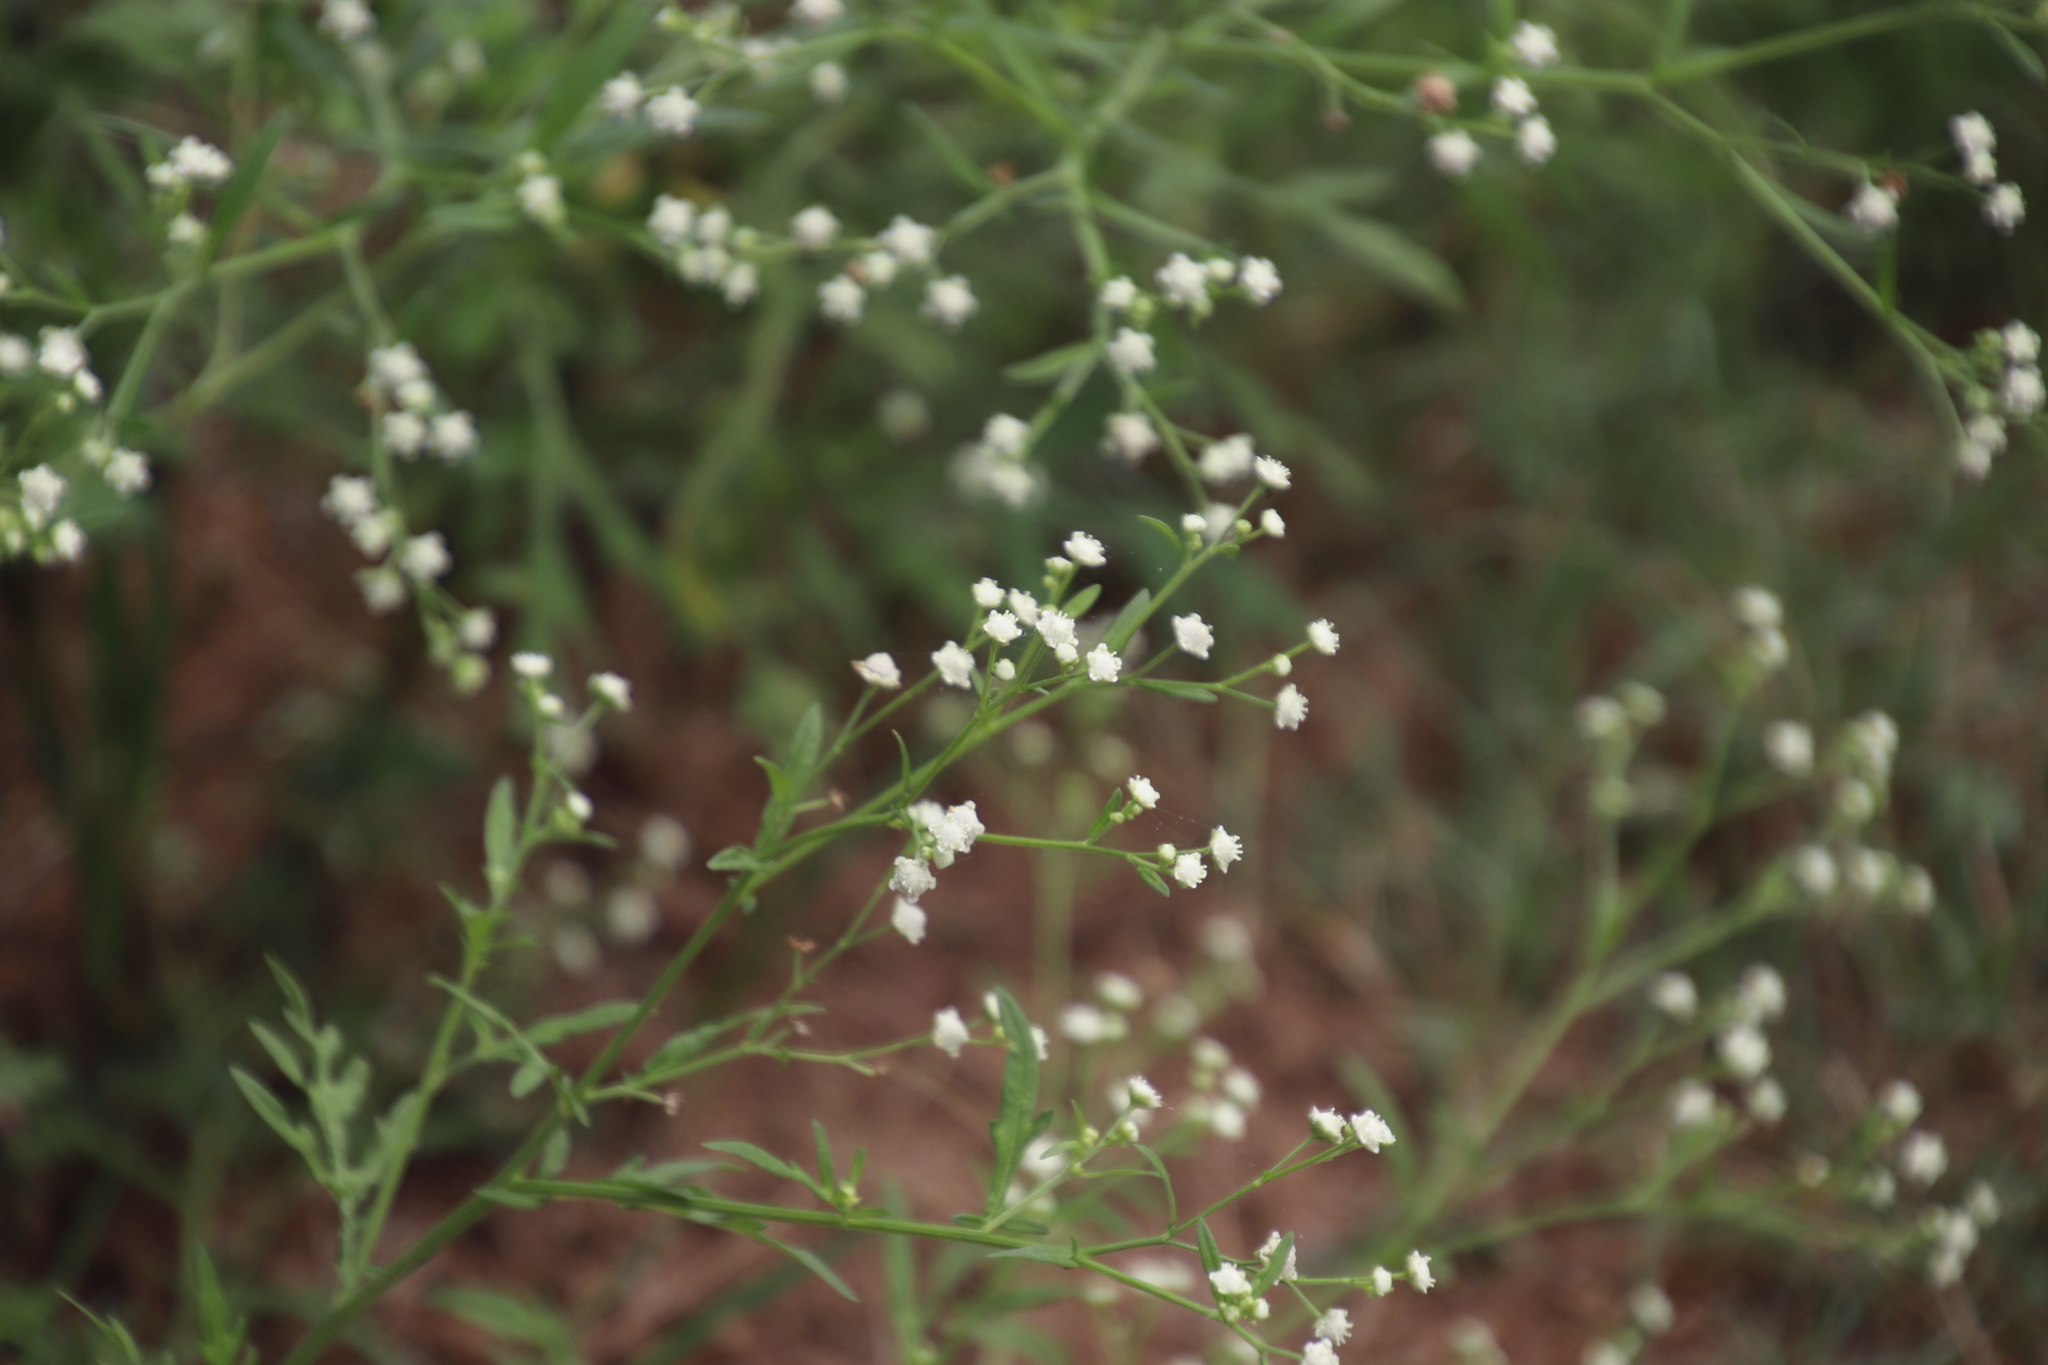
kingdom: Plantae
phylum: Tracheophyta
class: Magnoliopsida
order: Asterales
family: Asteraceae
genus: Parthenium
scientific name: Parthenium hysterophorus
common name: Santa maria feverfew
